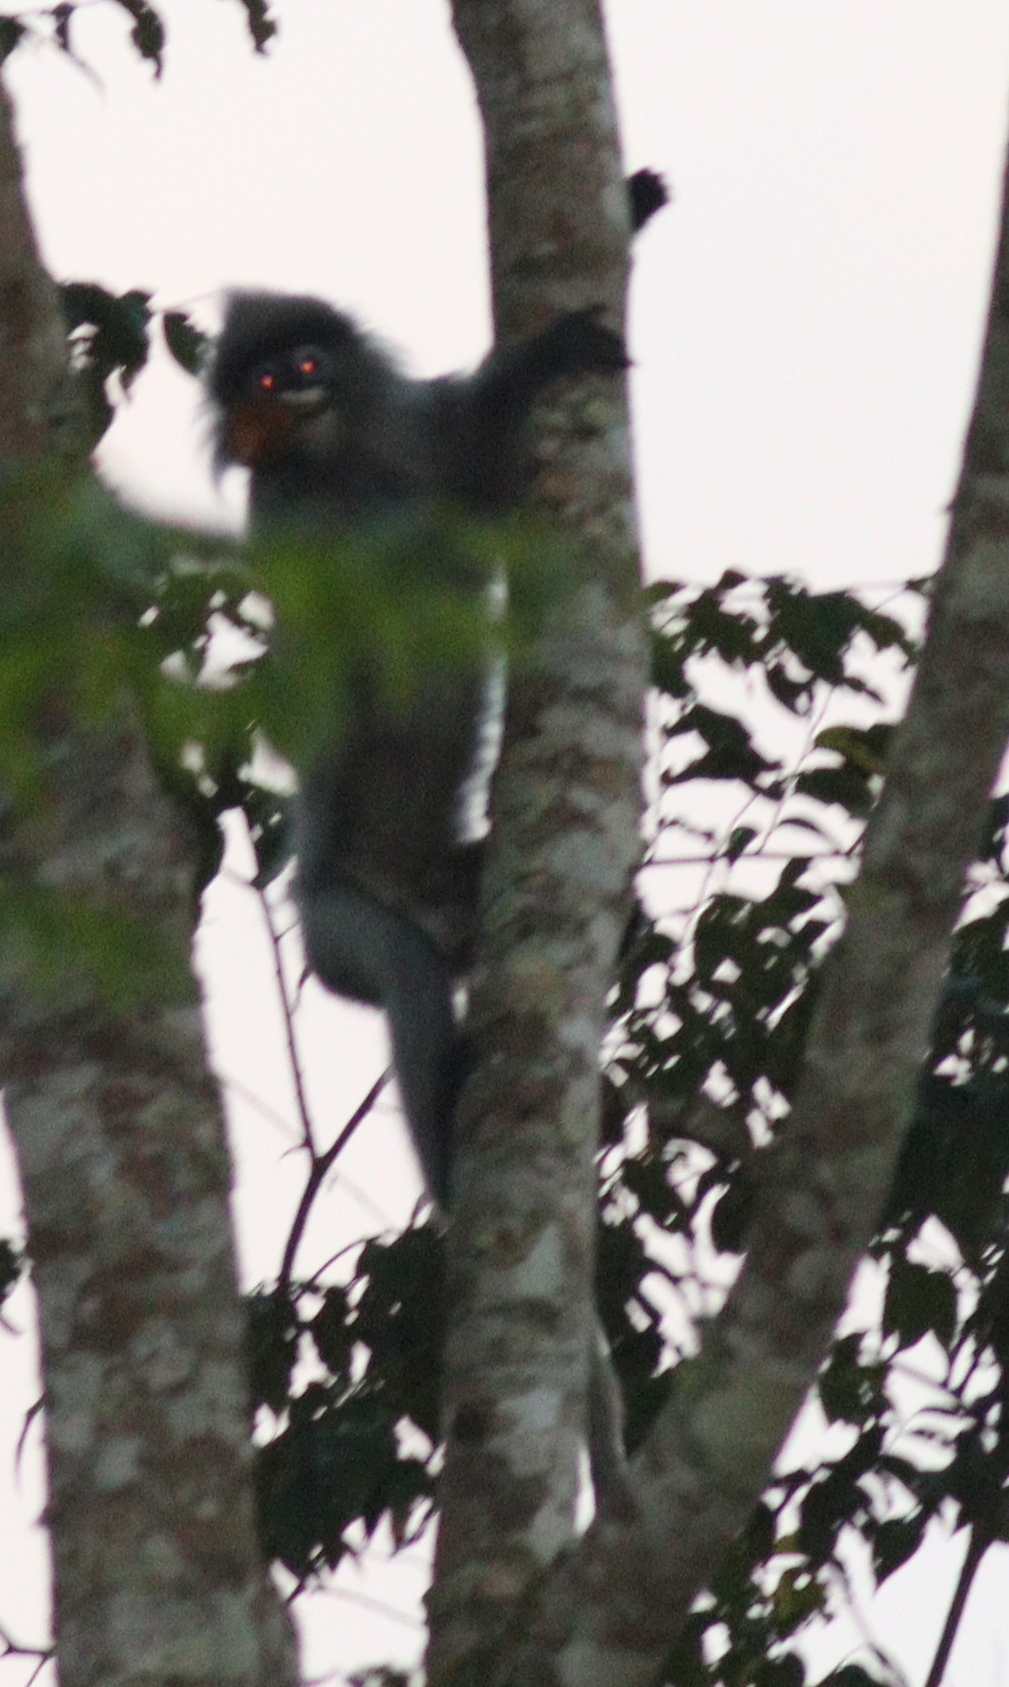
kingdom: Animalia
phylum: Chordata
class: Mammalia
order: Primates
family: Cercopithecidae
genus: Trachypithecus
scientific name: Trachypithecus crepusculus
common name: Indochinese gray langur
